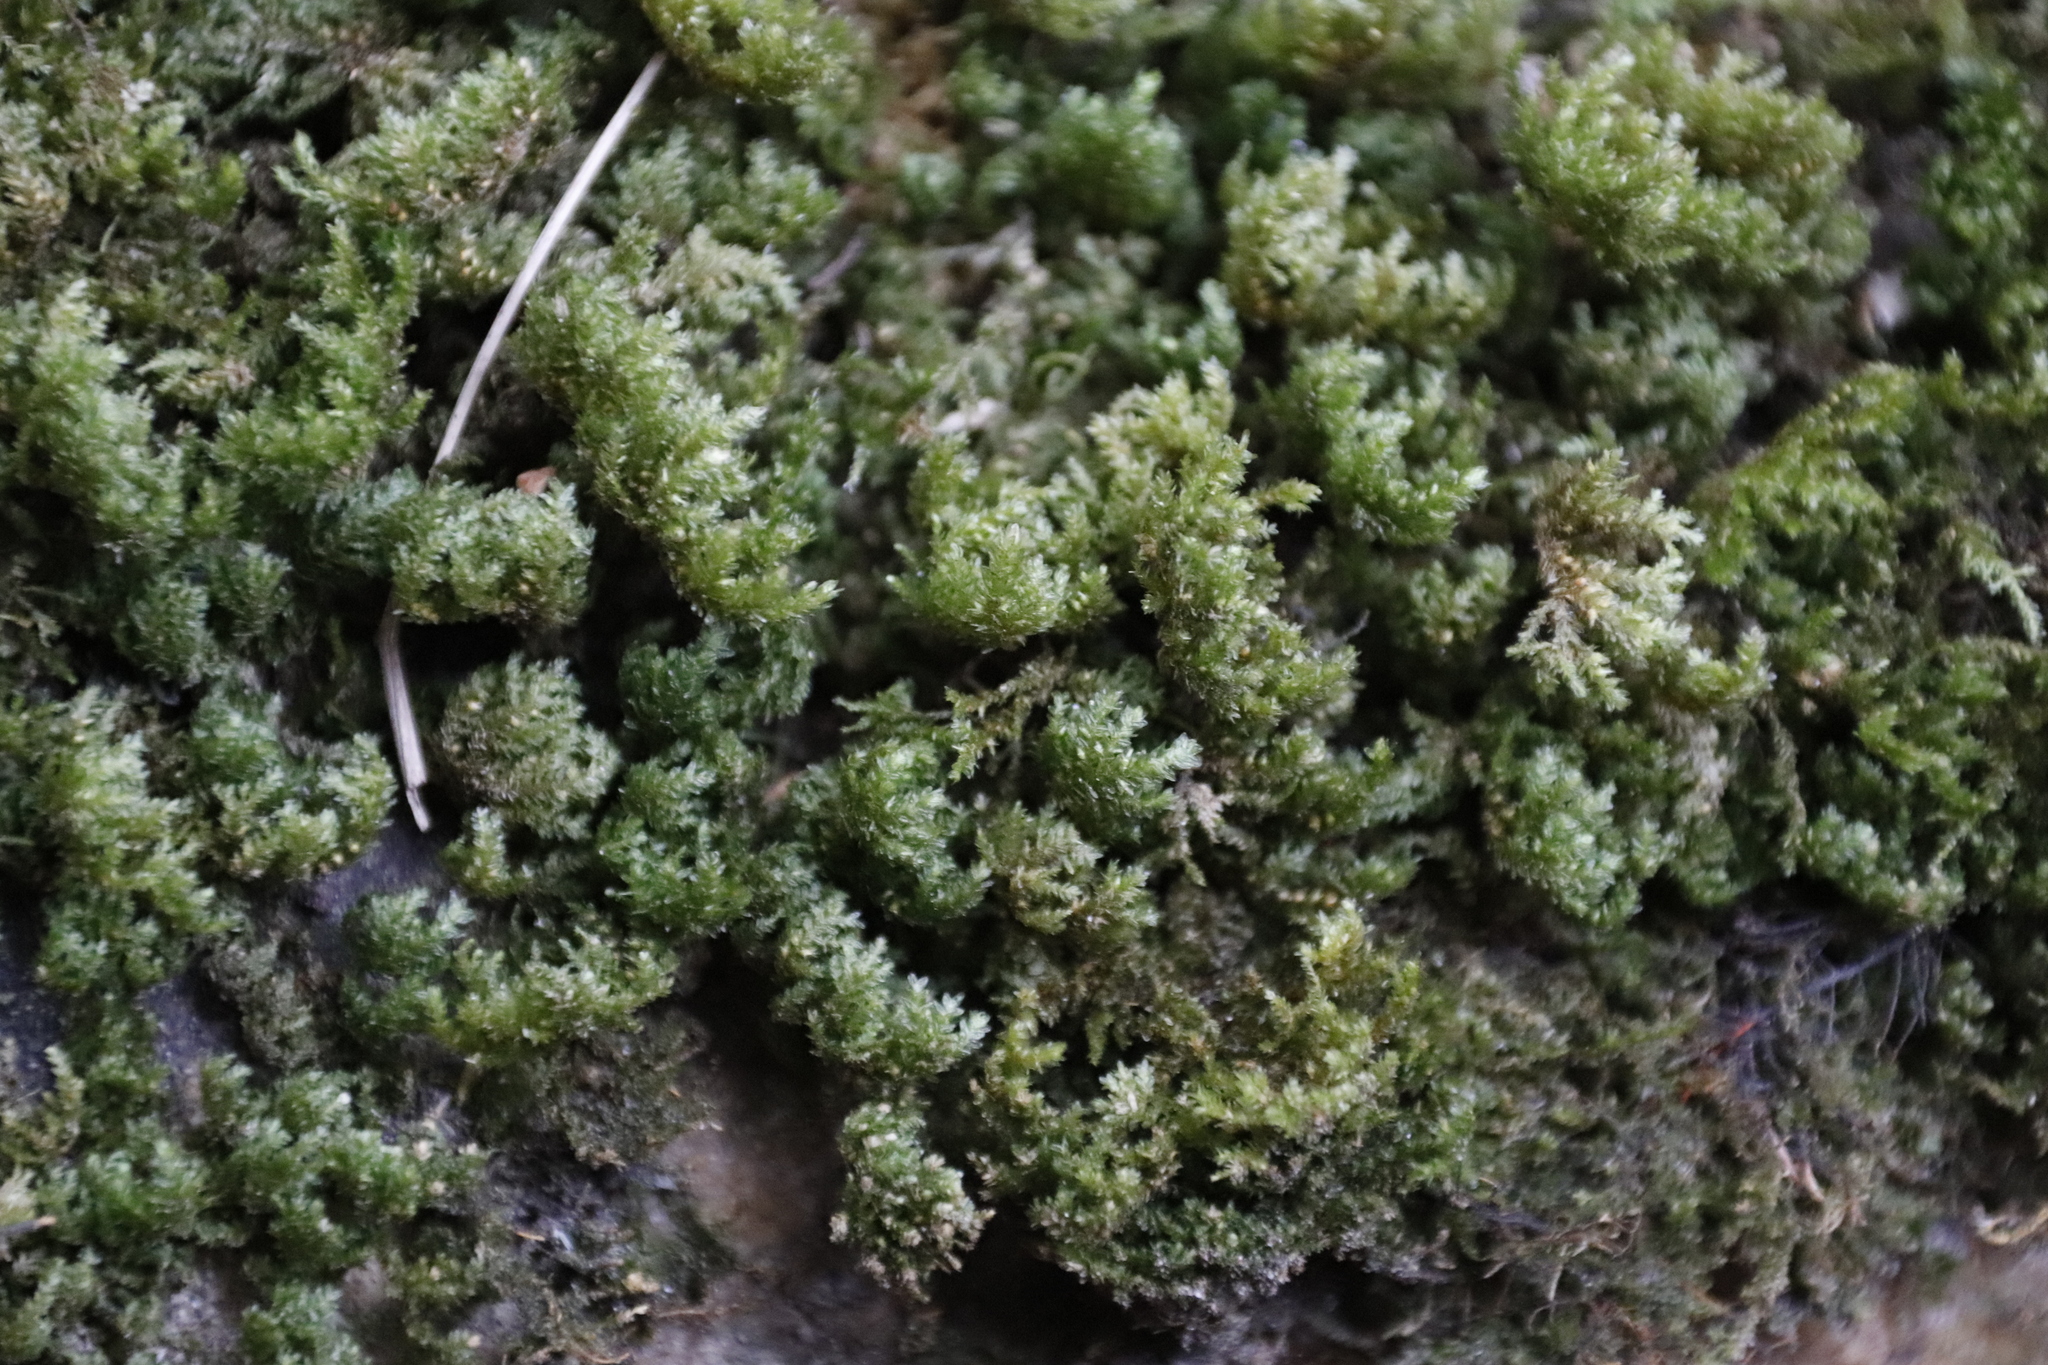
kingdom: Plantae
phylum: Bryophyta
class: Bryopsida
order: Hypnales
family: Neckeraceae
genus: Leptodon
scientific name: Leptodon smithii
